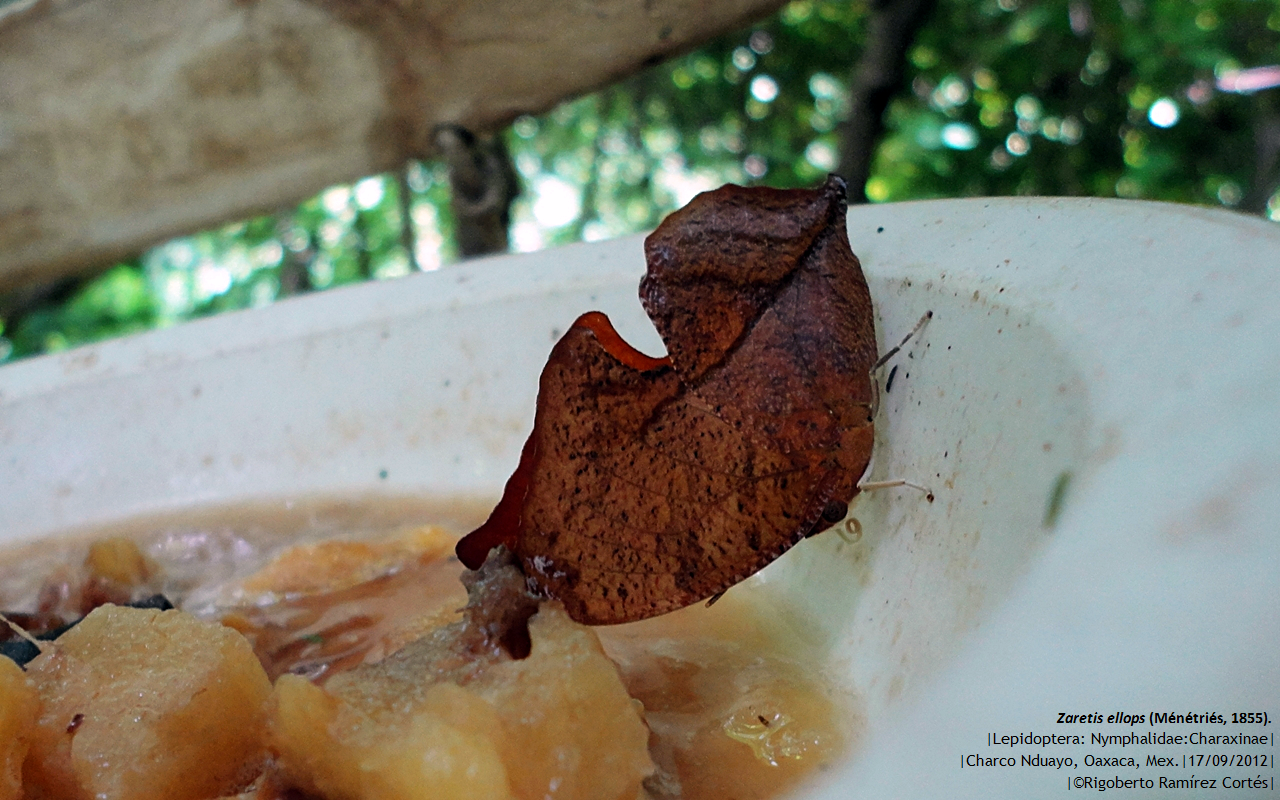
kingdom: Animalia
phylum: Arthropoda
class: Insecta
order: Lepidoptera
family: Nymphalidae
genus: Zaretis
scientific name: Zaretis itys
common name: Skeletonized leafwing
